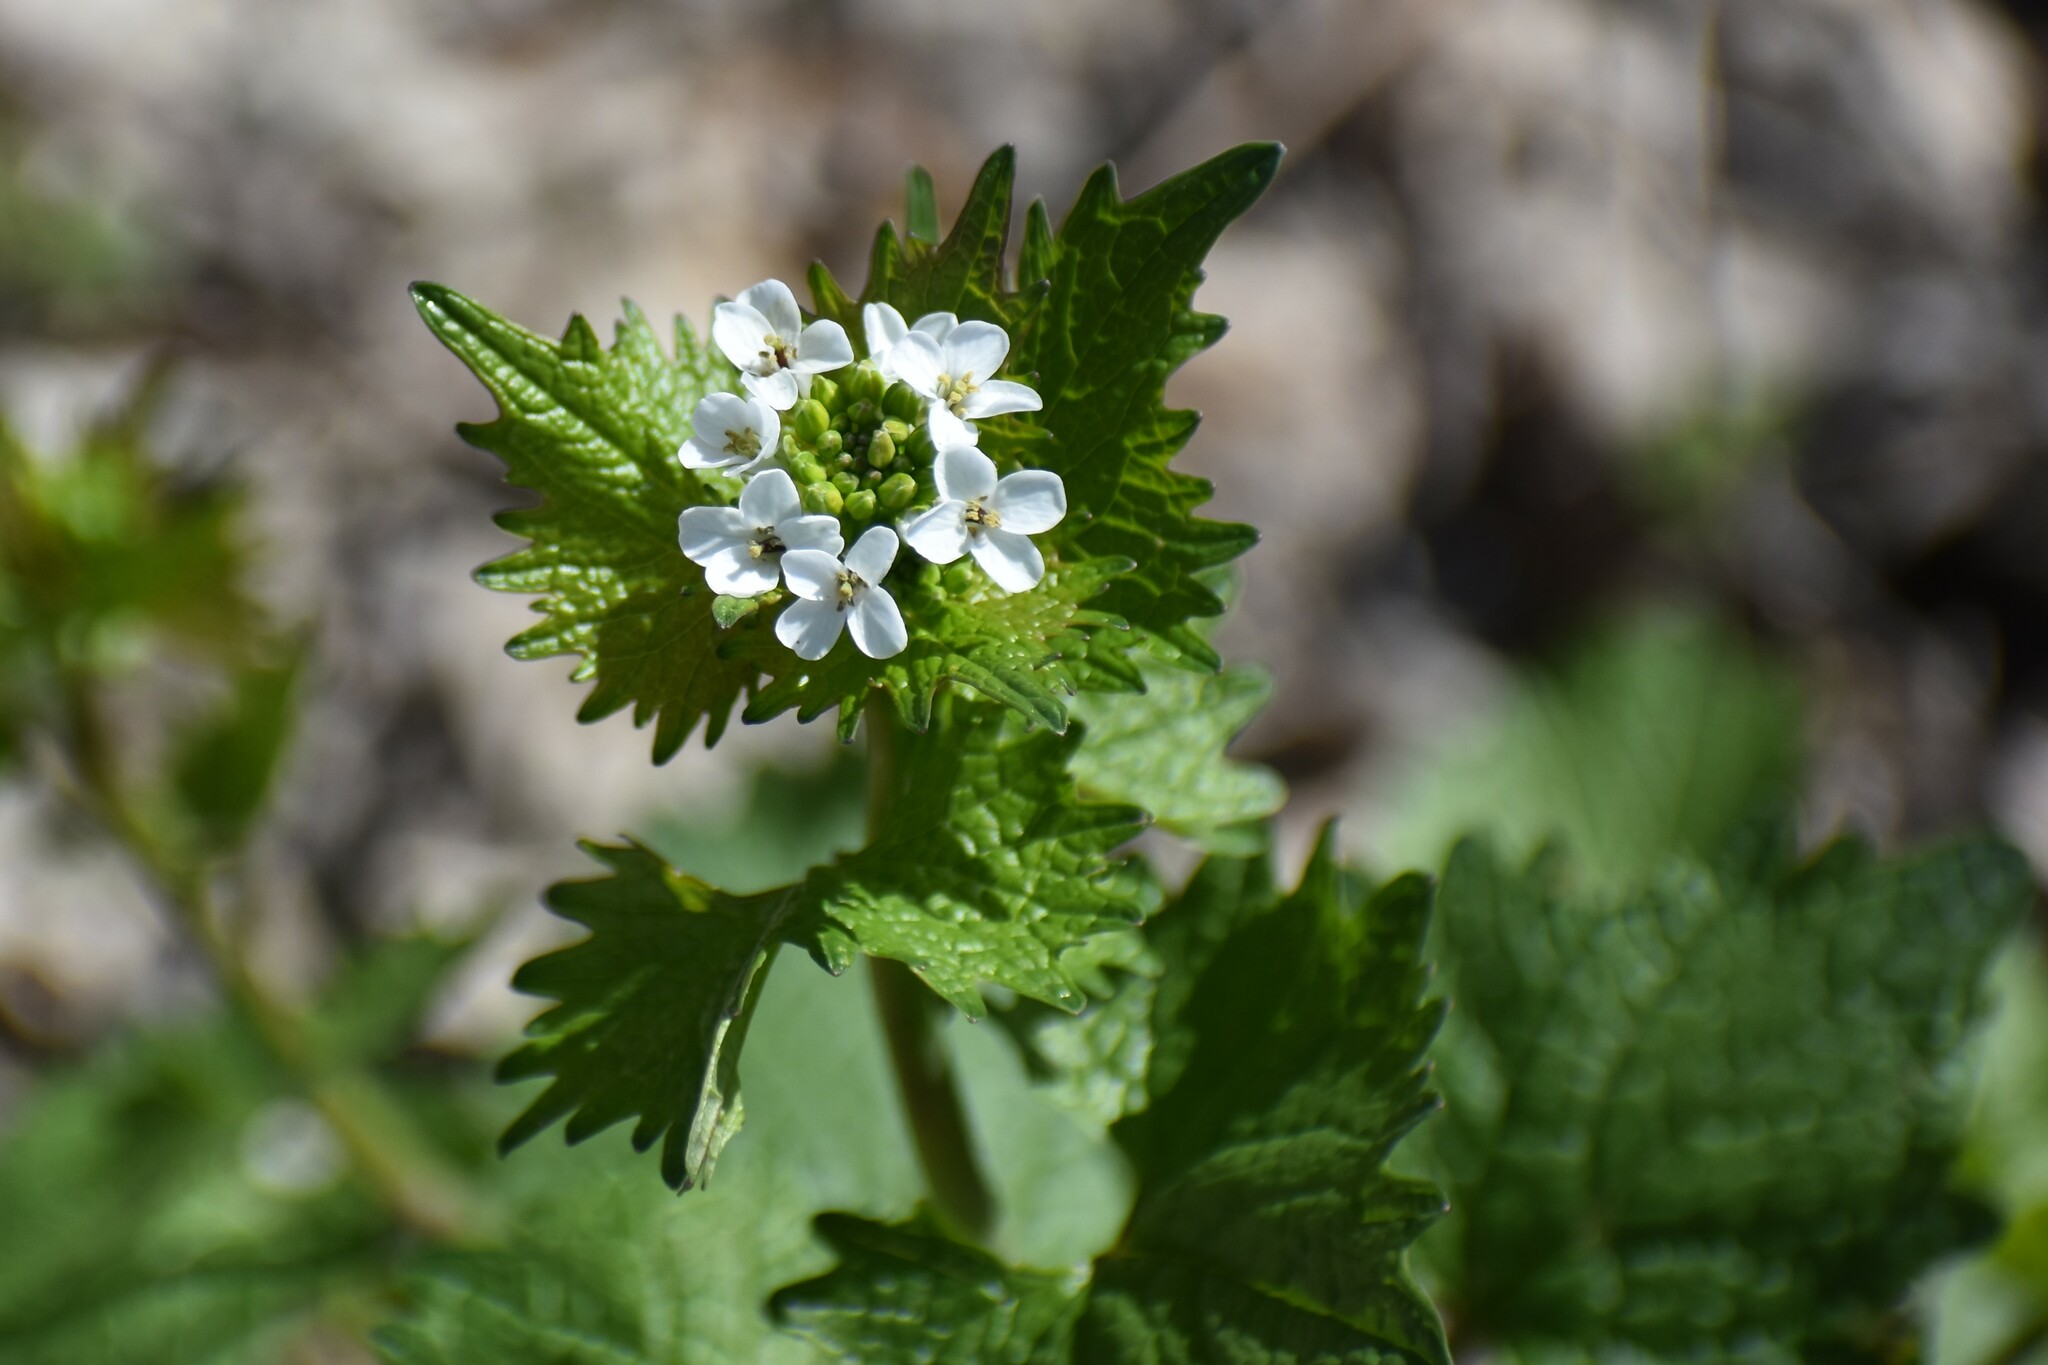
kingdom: Plantae
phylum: Tracheophyta
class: Magnoliopsida
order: Brassicales
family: Brassicaceae
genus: Alliaria
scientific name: Alliaria petiolata
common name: Garlic mustard
